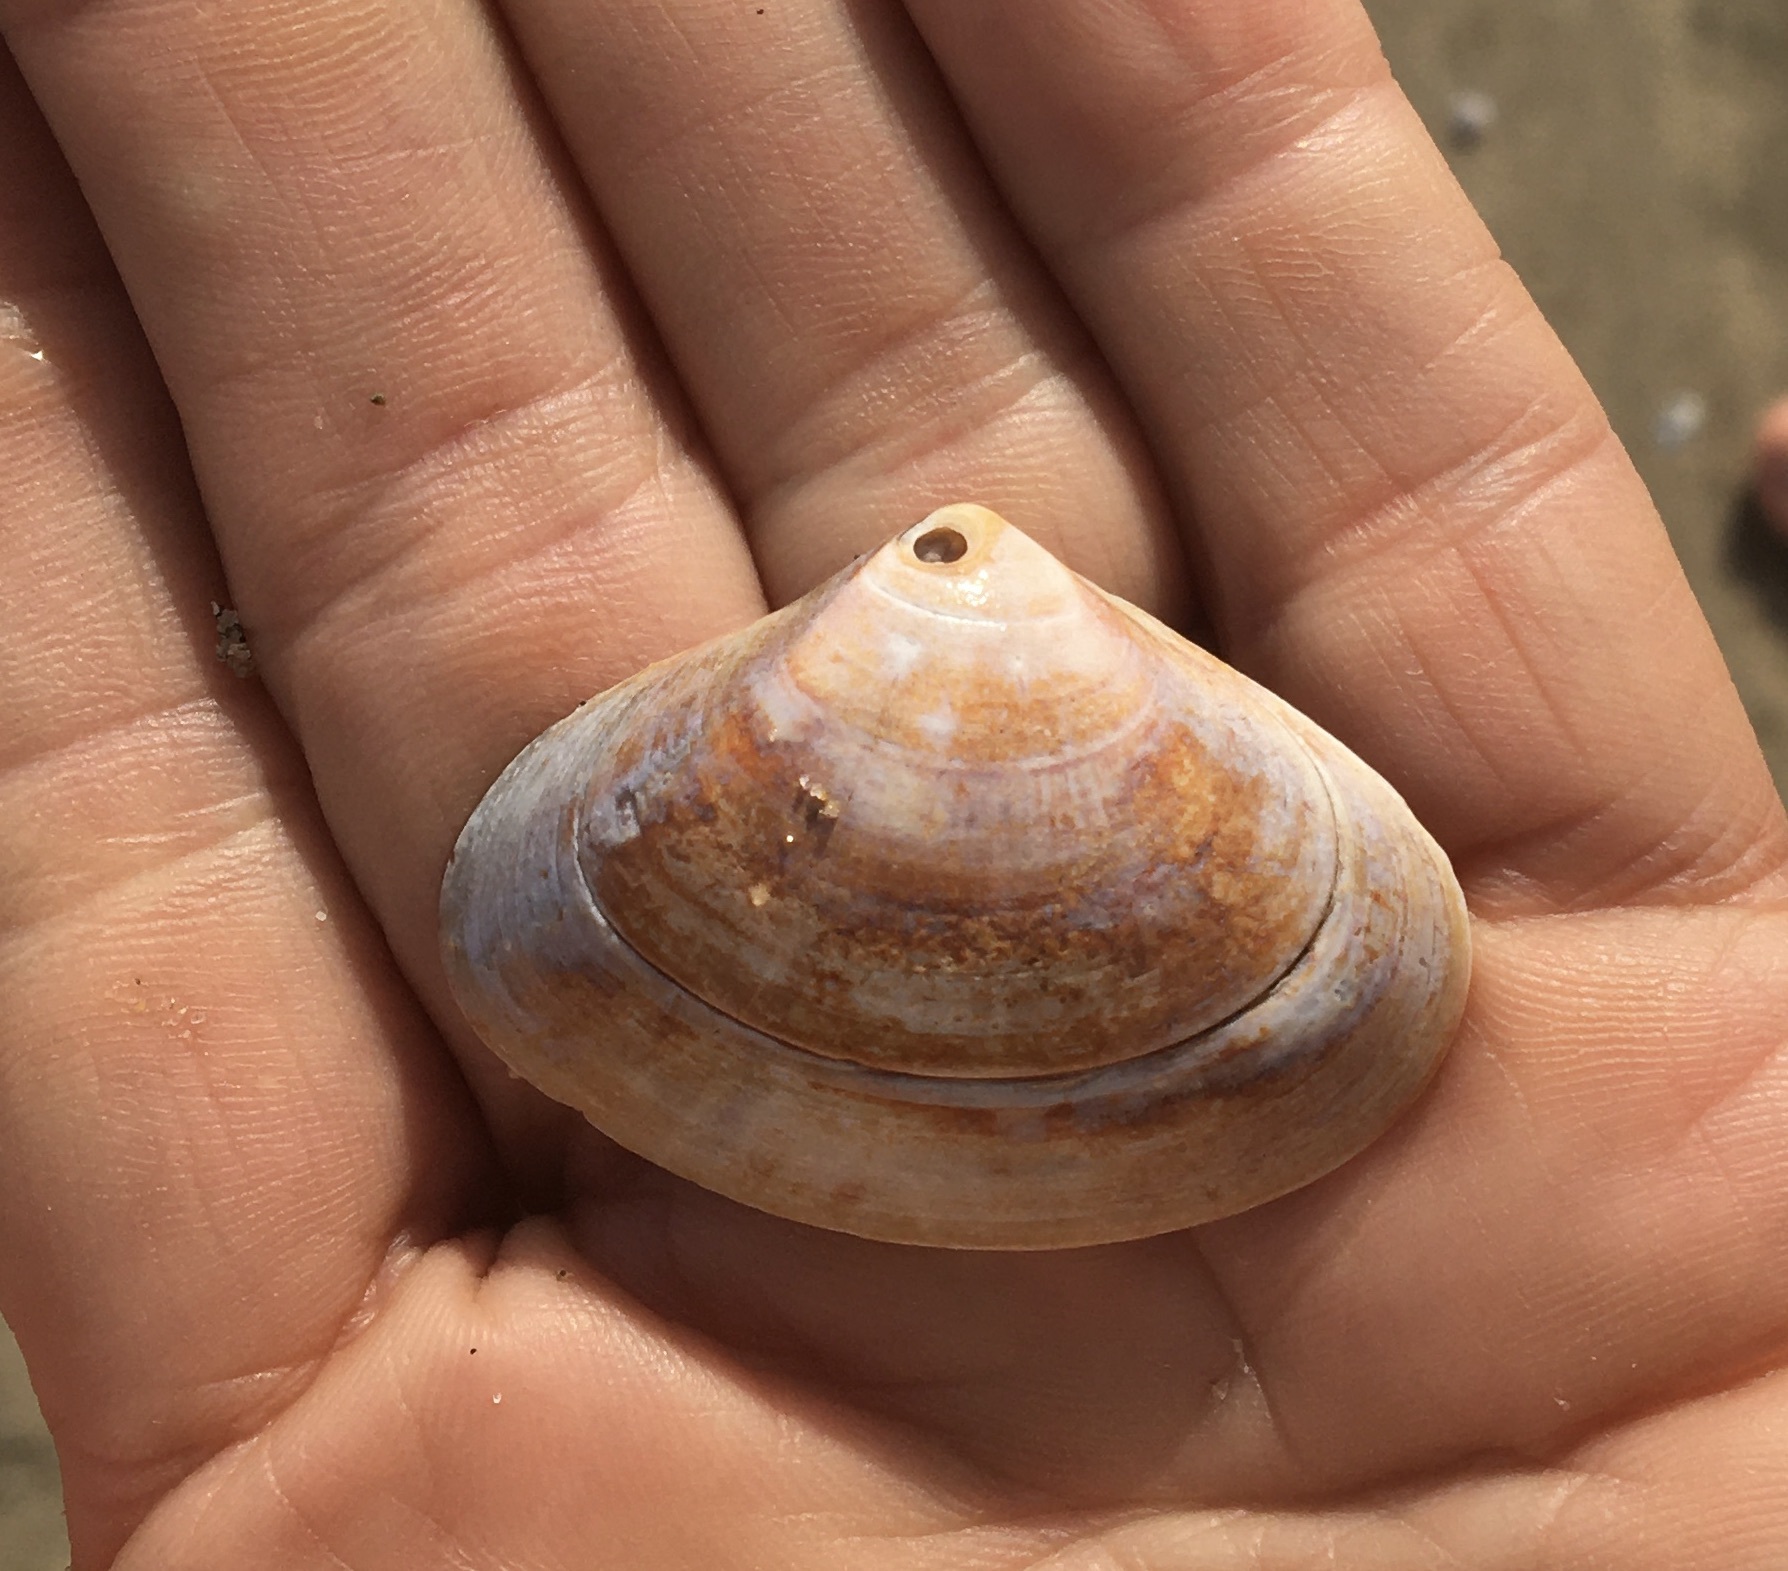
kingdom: Animalia
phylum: Mollusca
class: Bivalvia
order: Venerida
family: Veneridae
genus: Tivela
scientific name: Tivela stultorum
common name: Pismo clam
